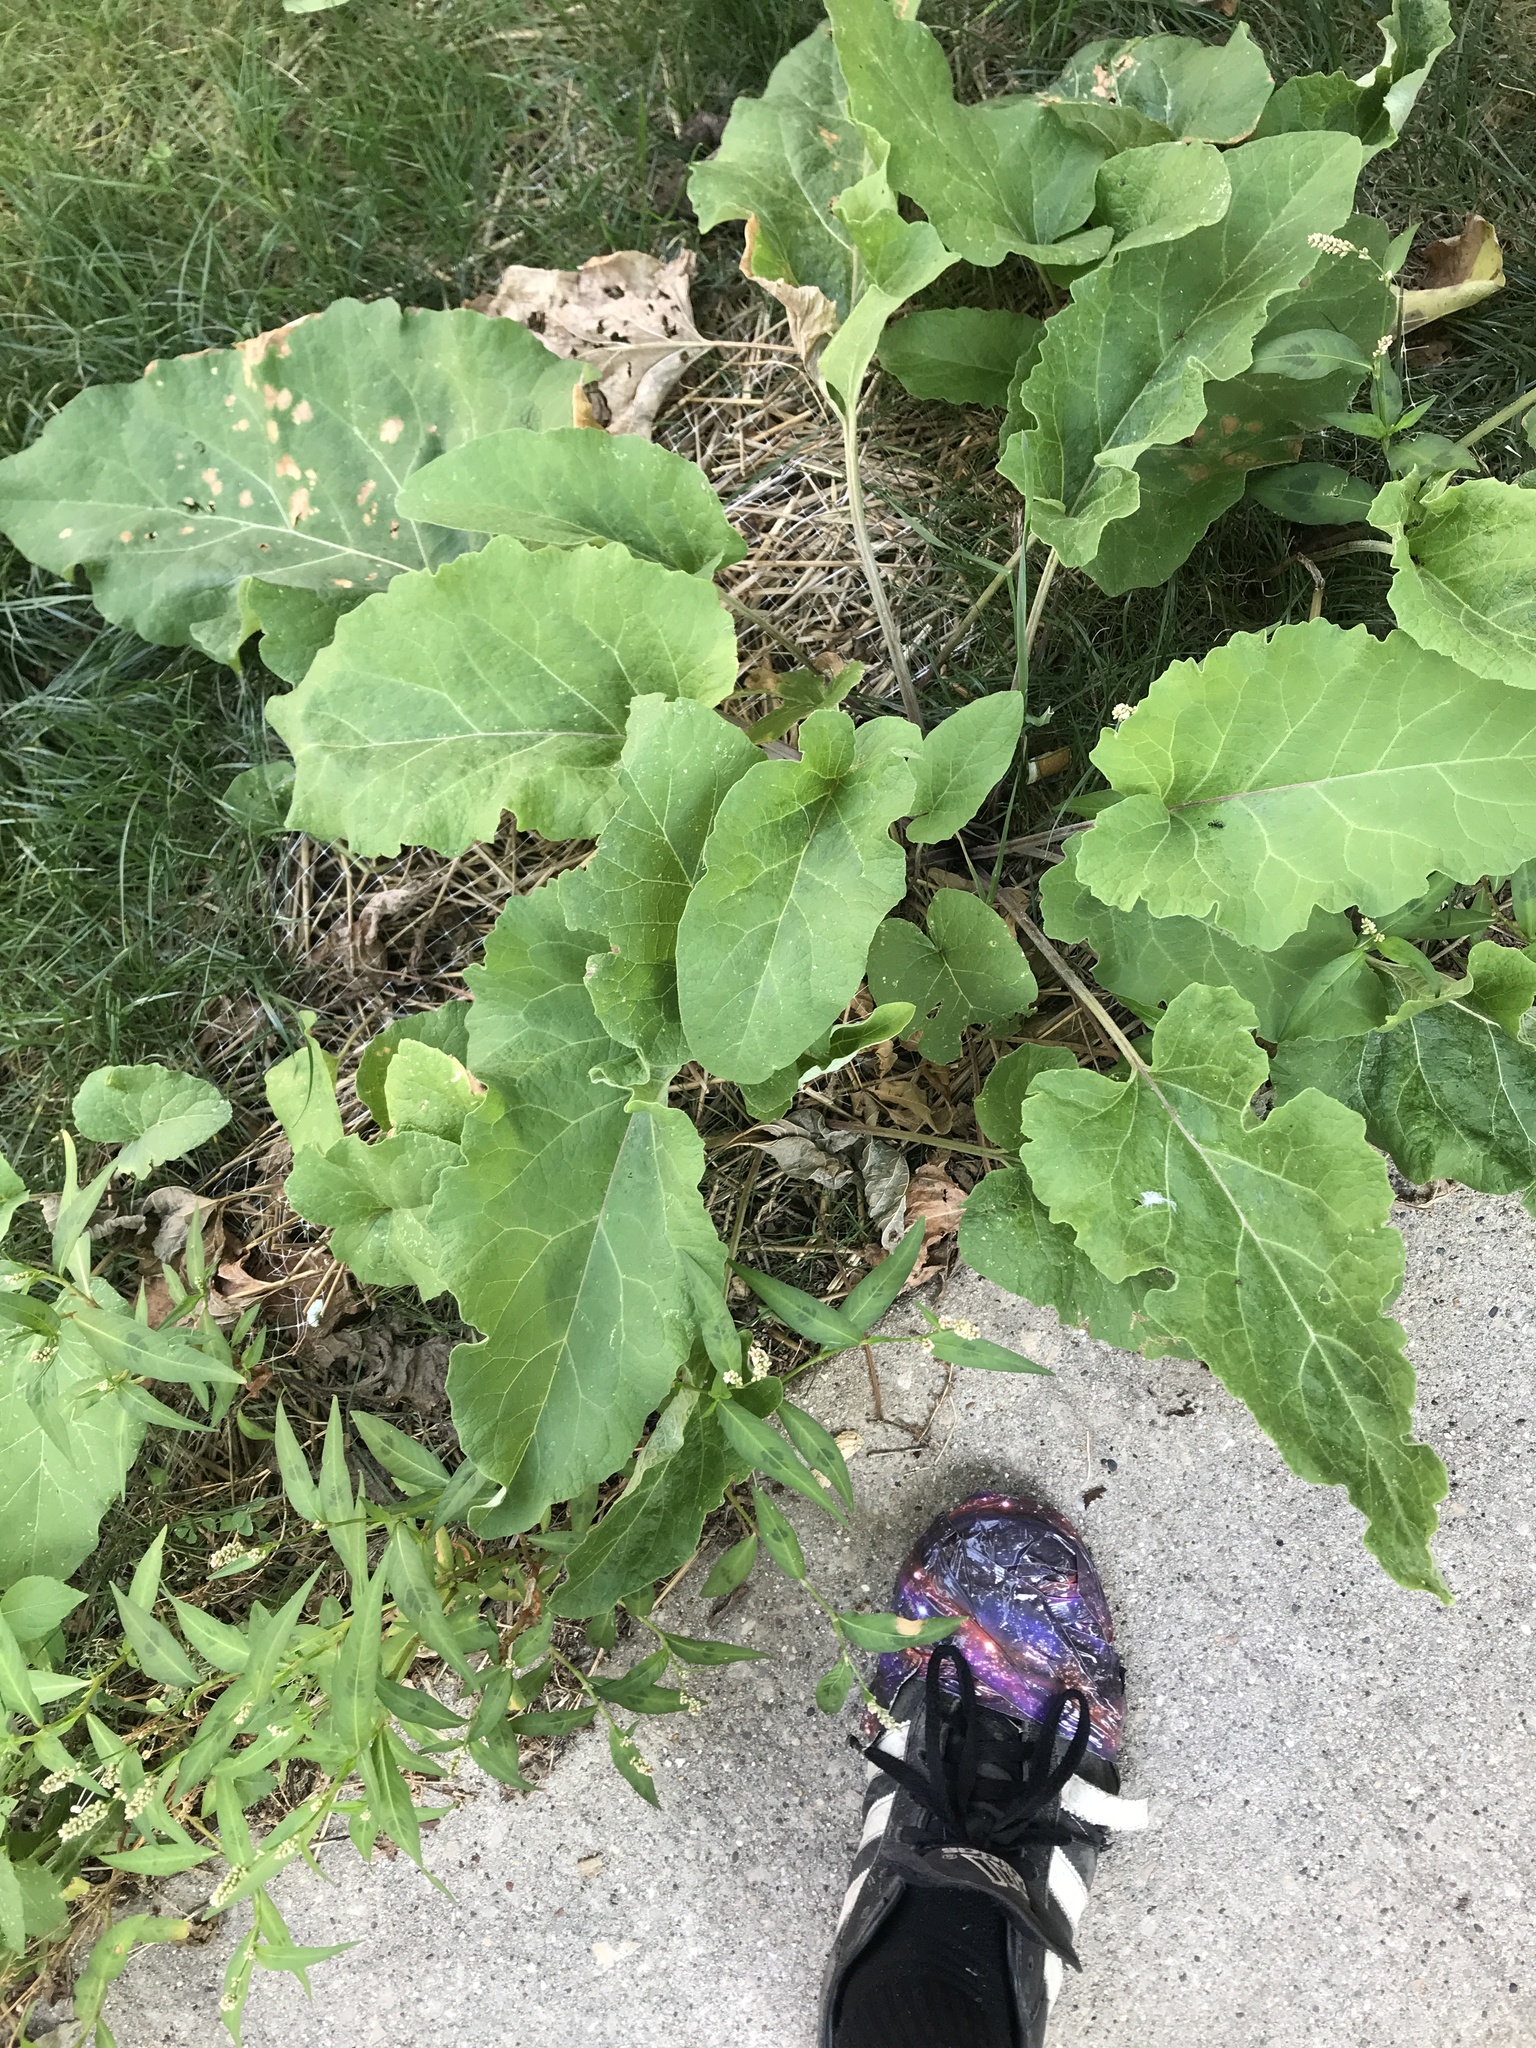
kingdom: Plantae
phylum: Tracheophyta
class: Magnoliopsida
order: Asterales
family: Asteraceae
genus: Arctium
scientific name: Arctium
